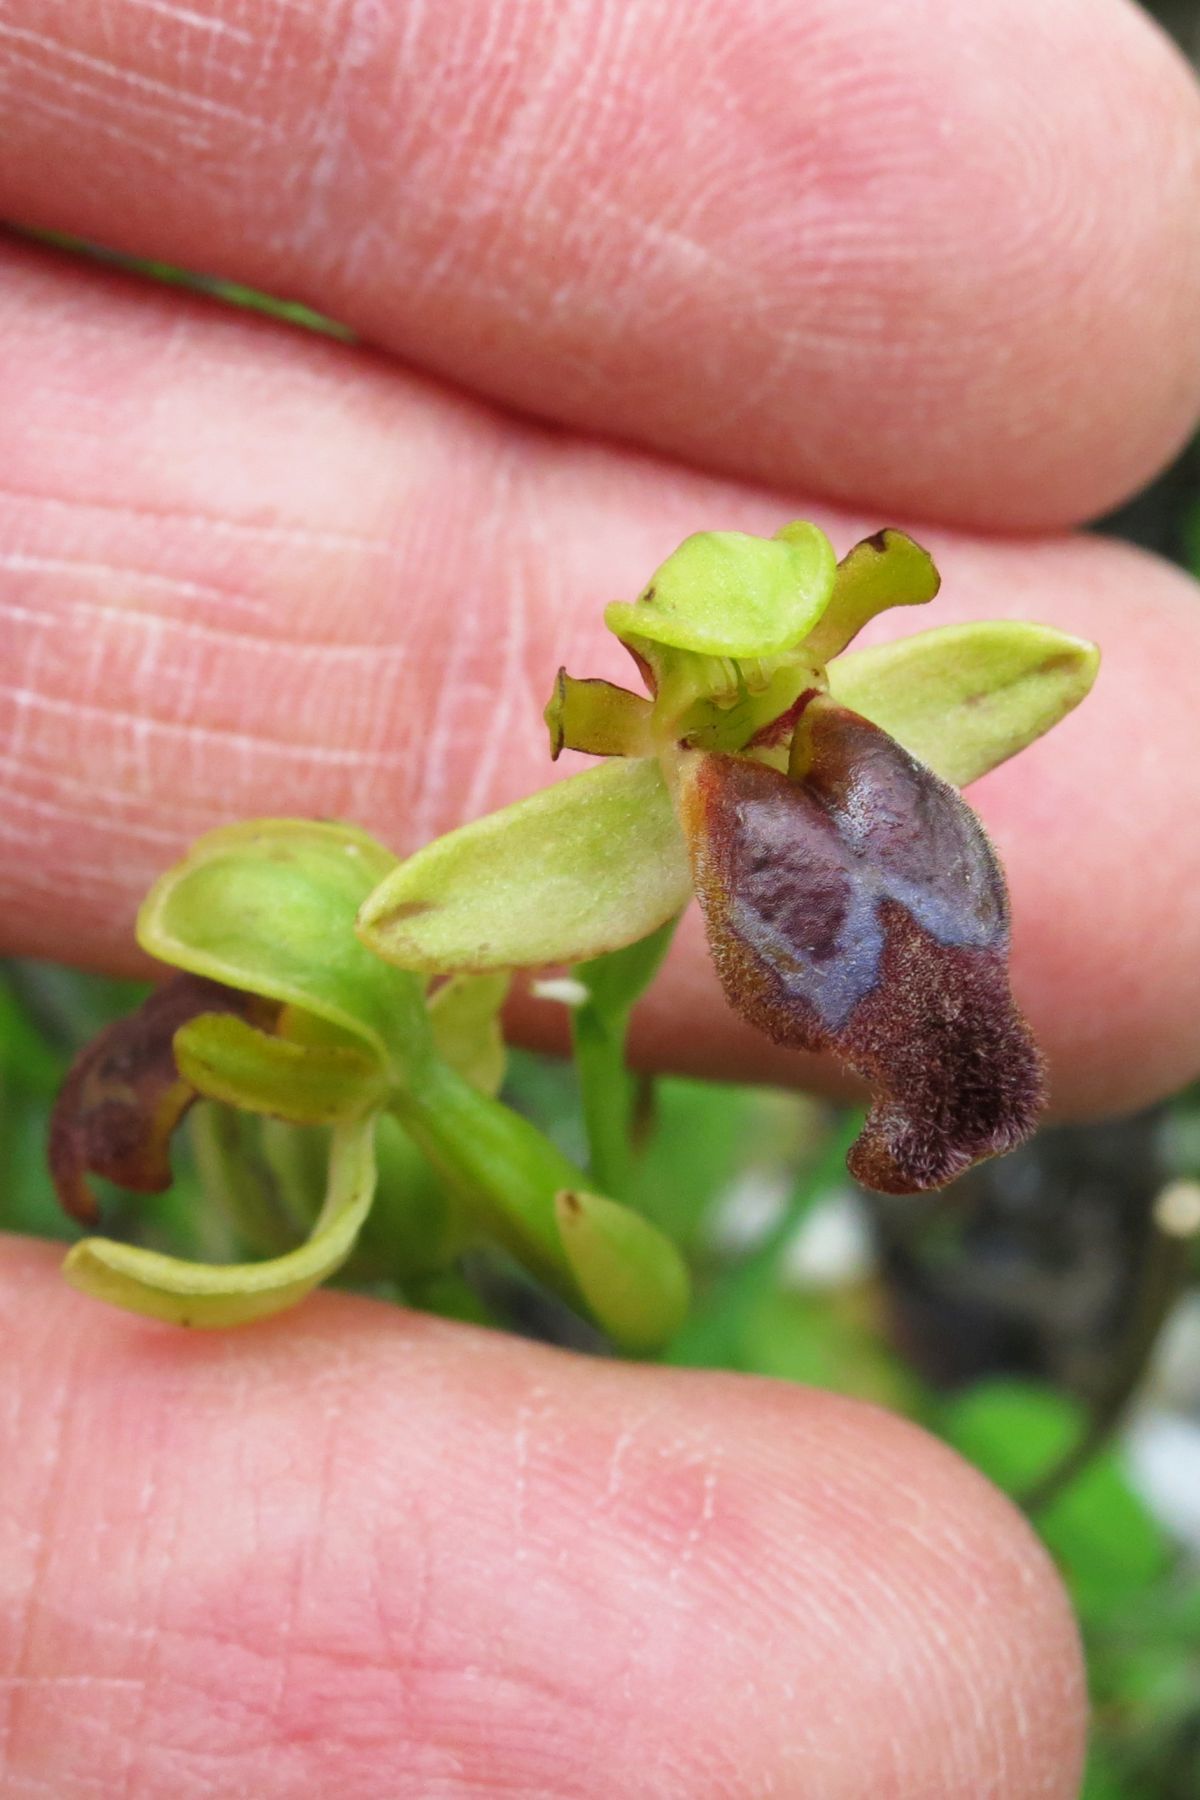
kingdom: Plantae
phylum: Tracheophyta
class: Liliopsida
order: Asparagales
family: Orchidaceae
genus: Ophrys
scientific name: Ophrys fusca
